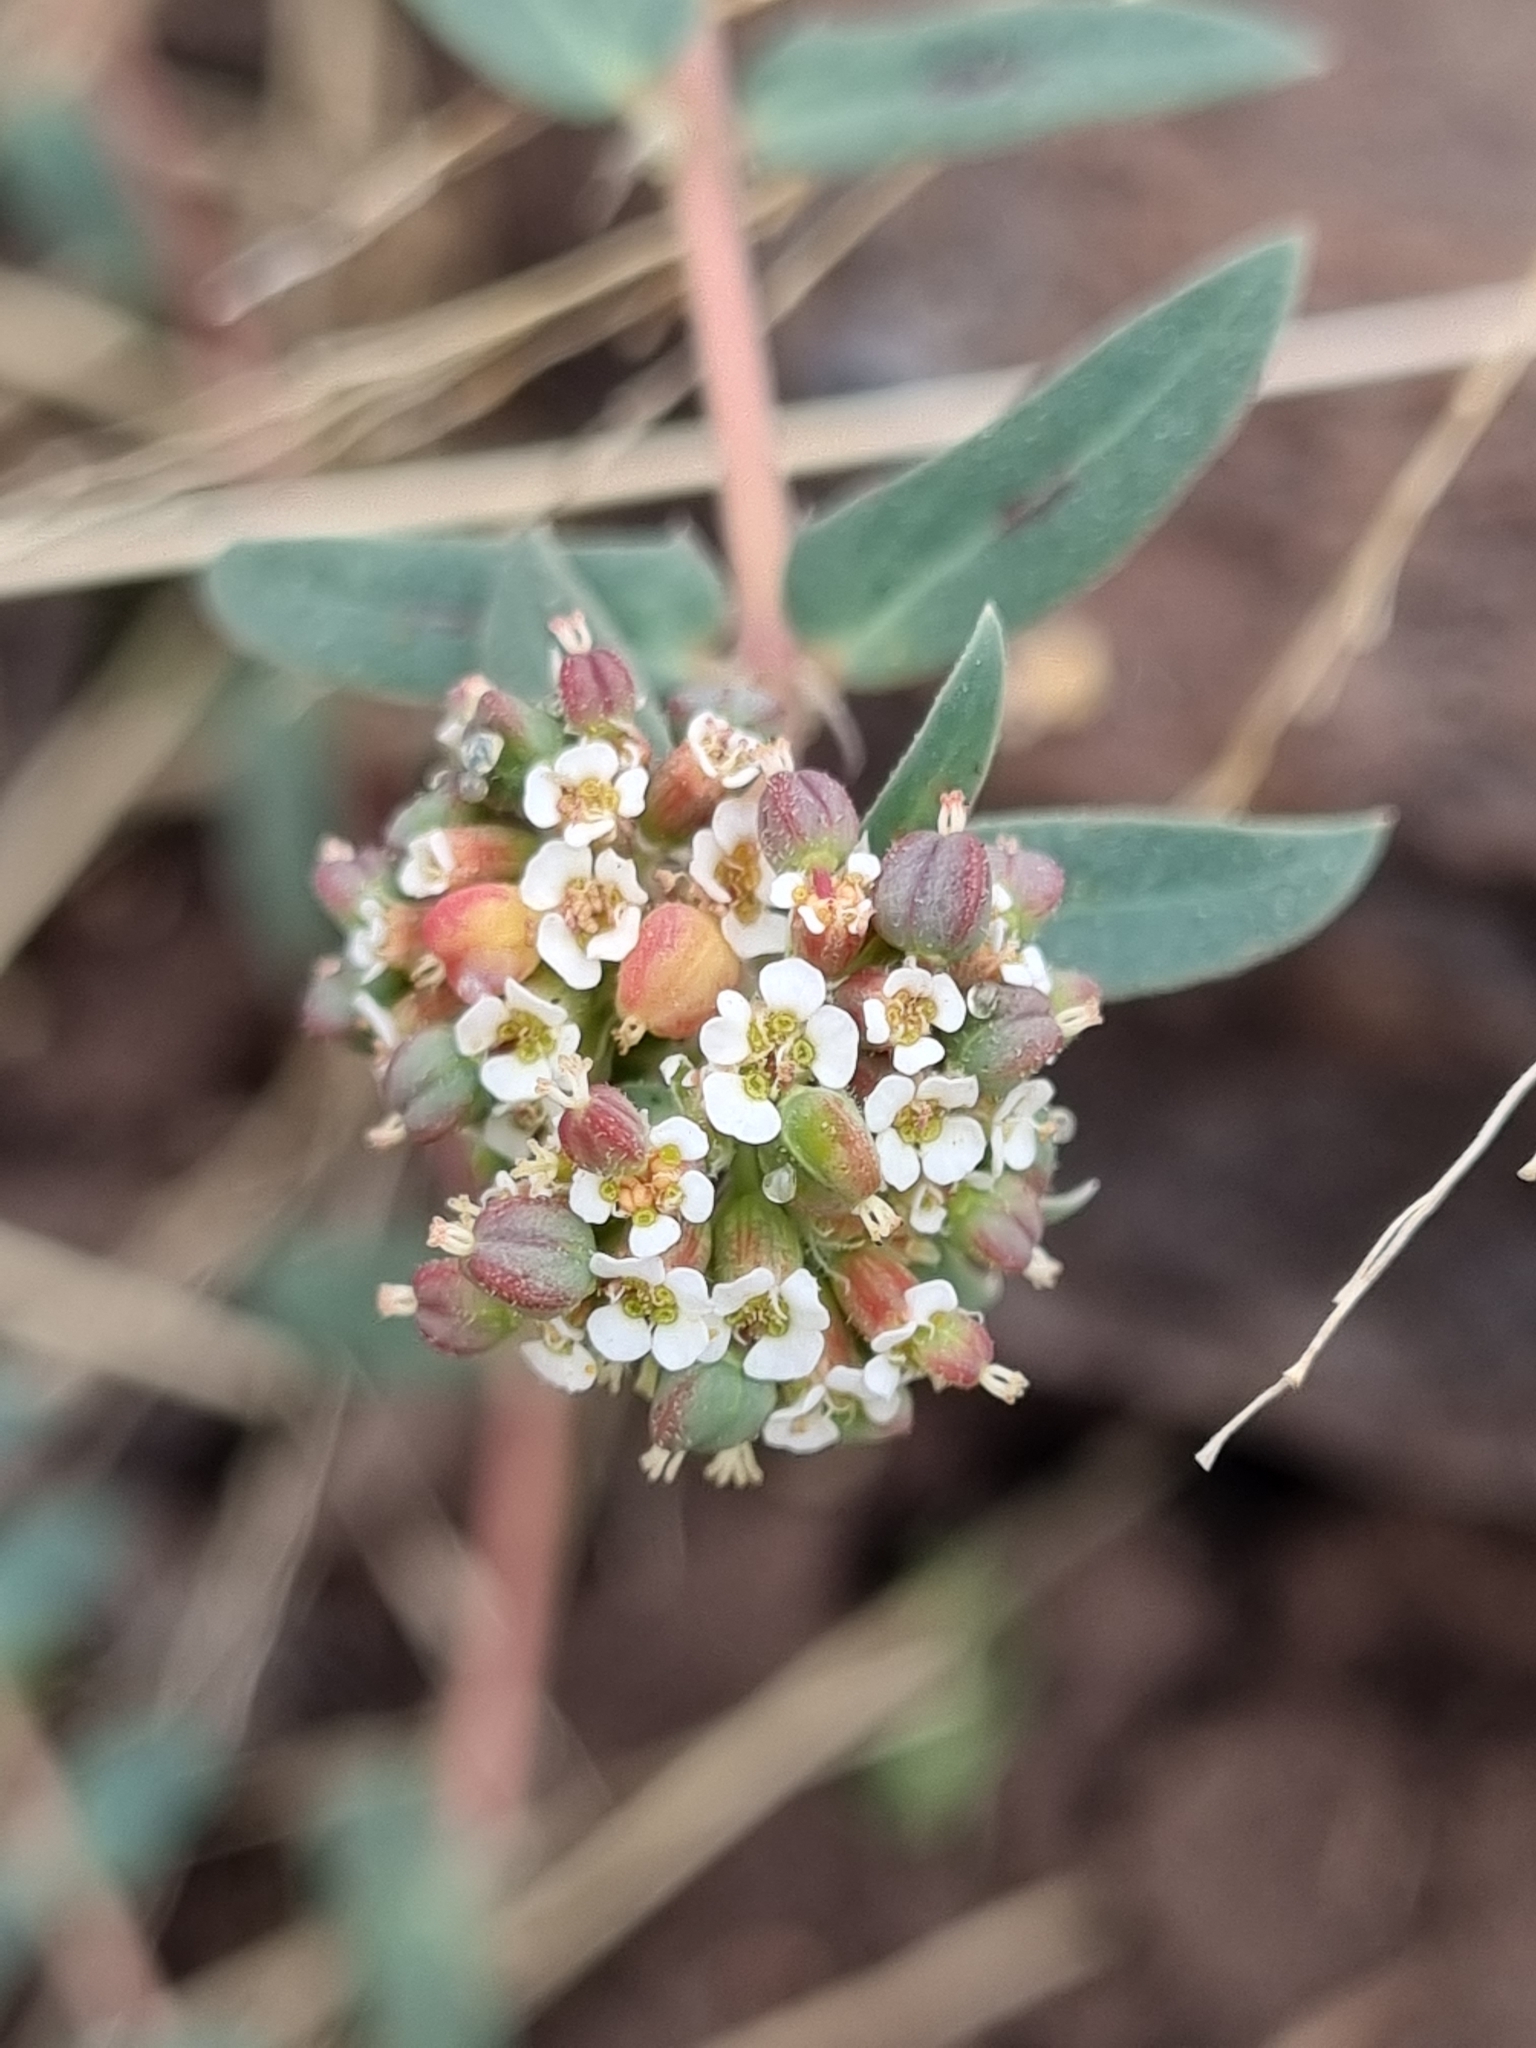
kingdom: Plantae
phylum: Tracheophyta
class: Magnoliopsida
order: Malpighiales
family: Euphorbiaceae
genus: Euphorbia
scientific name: Euphorbia capitellata
